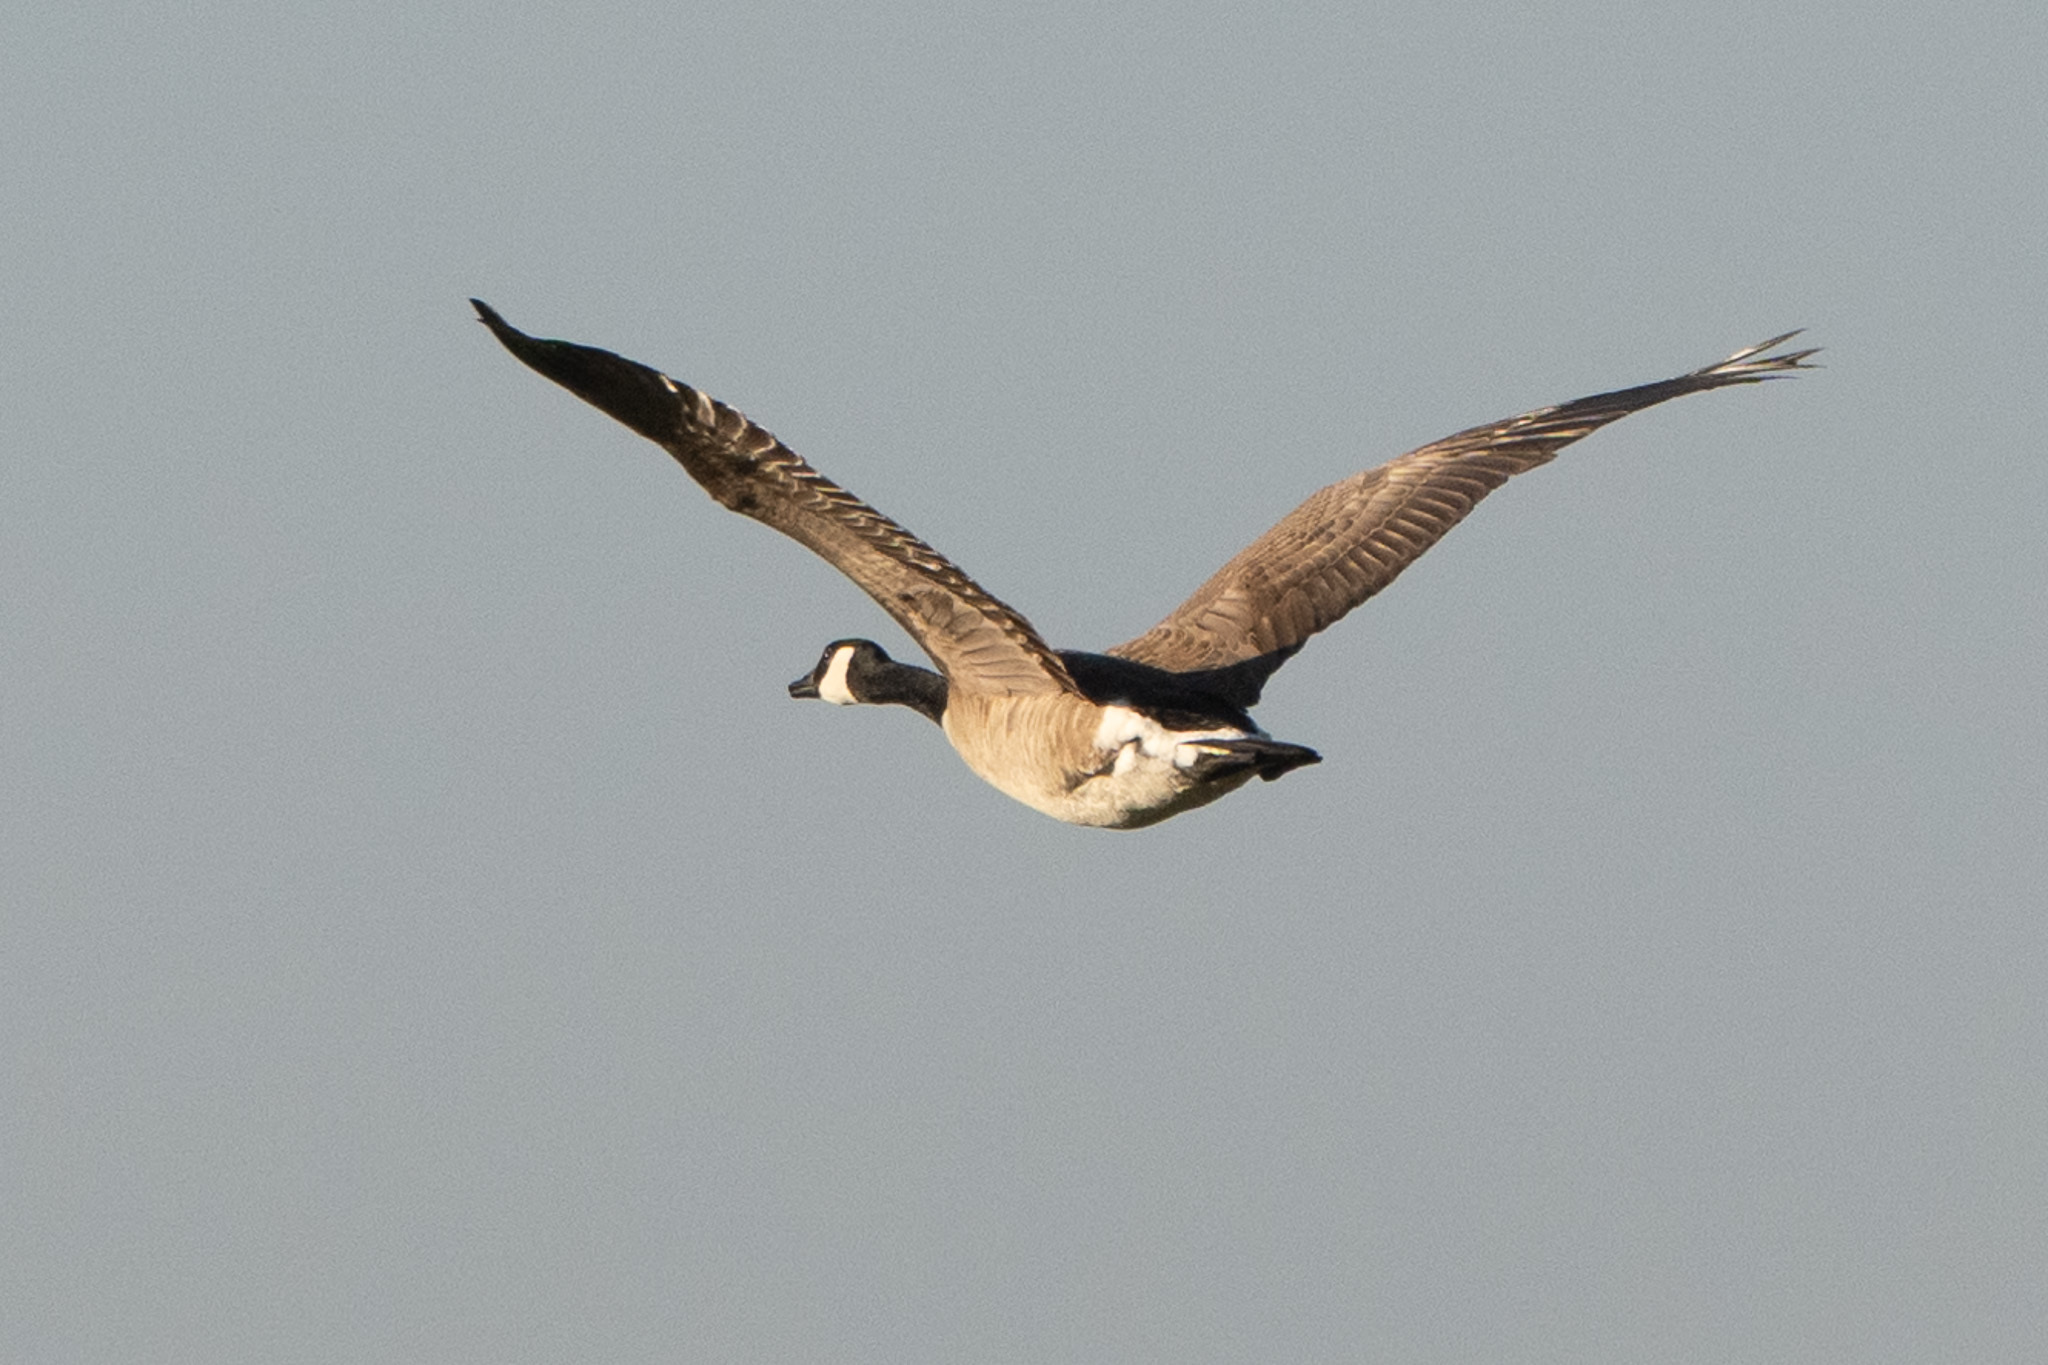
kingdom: Animalia
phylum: Chordata
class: Aves
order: Anseriformes
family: Anatidae
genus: Branta
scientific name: Branta canadensis
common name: Canada goose
